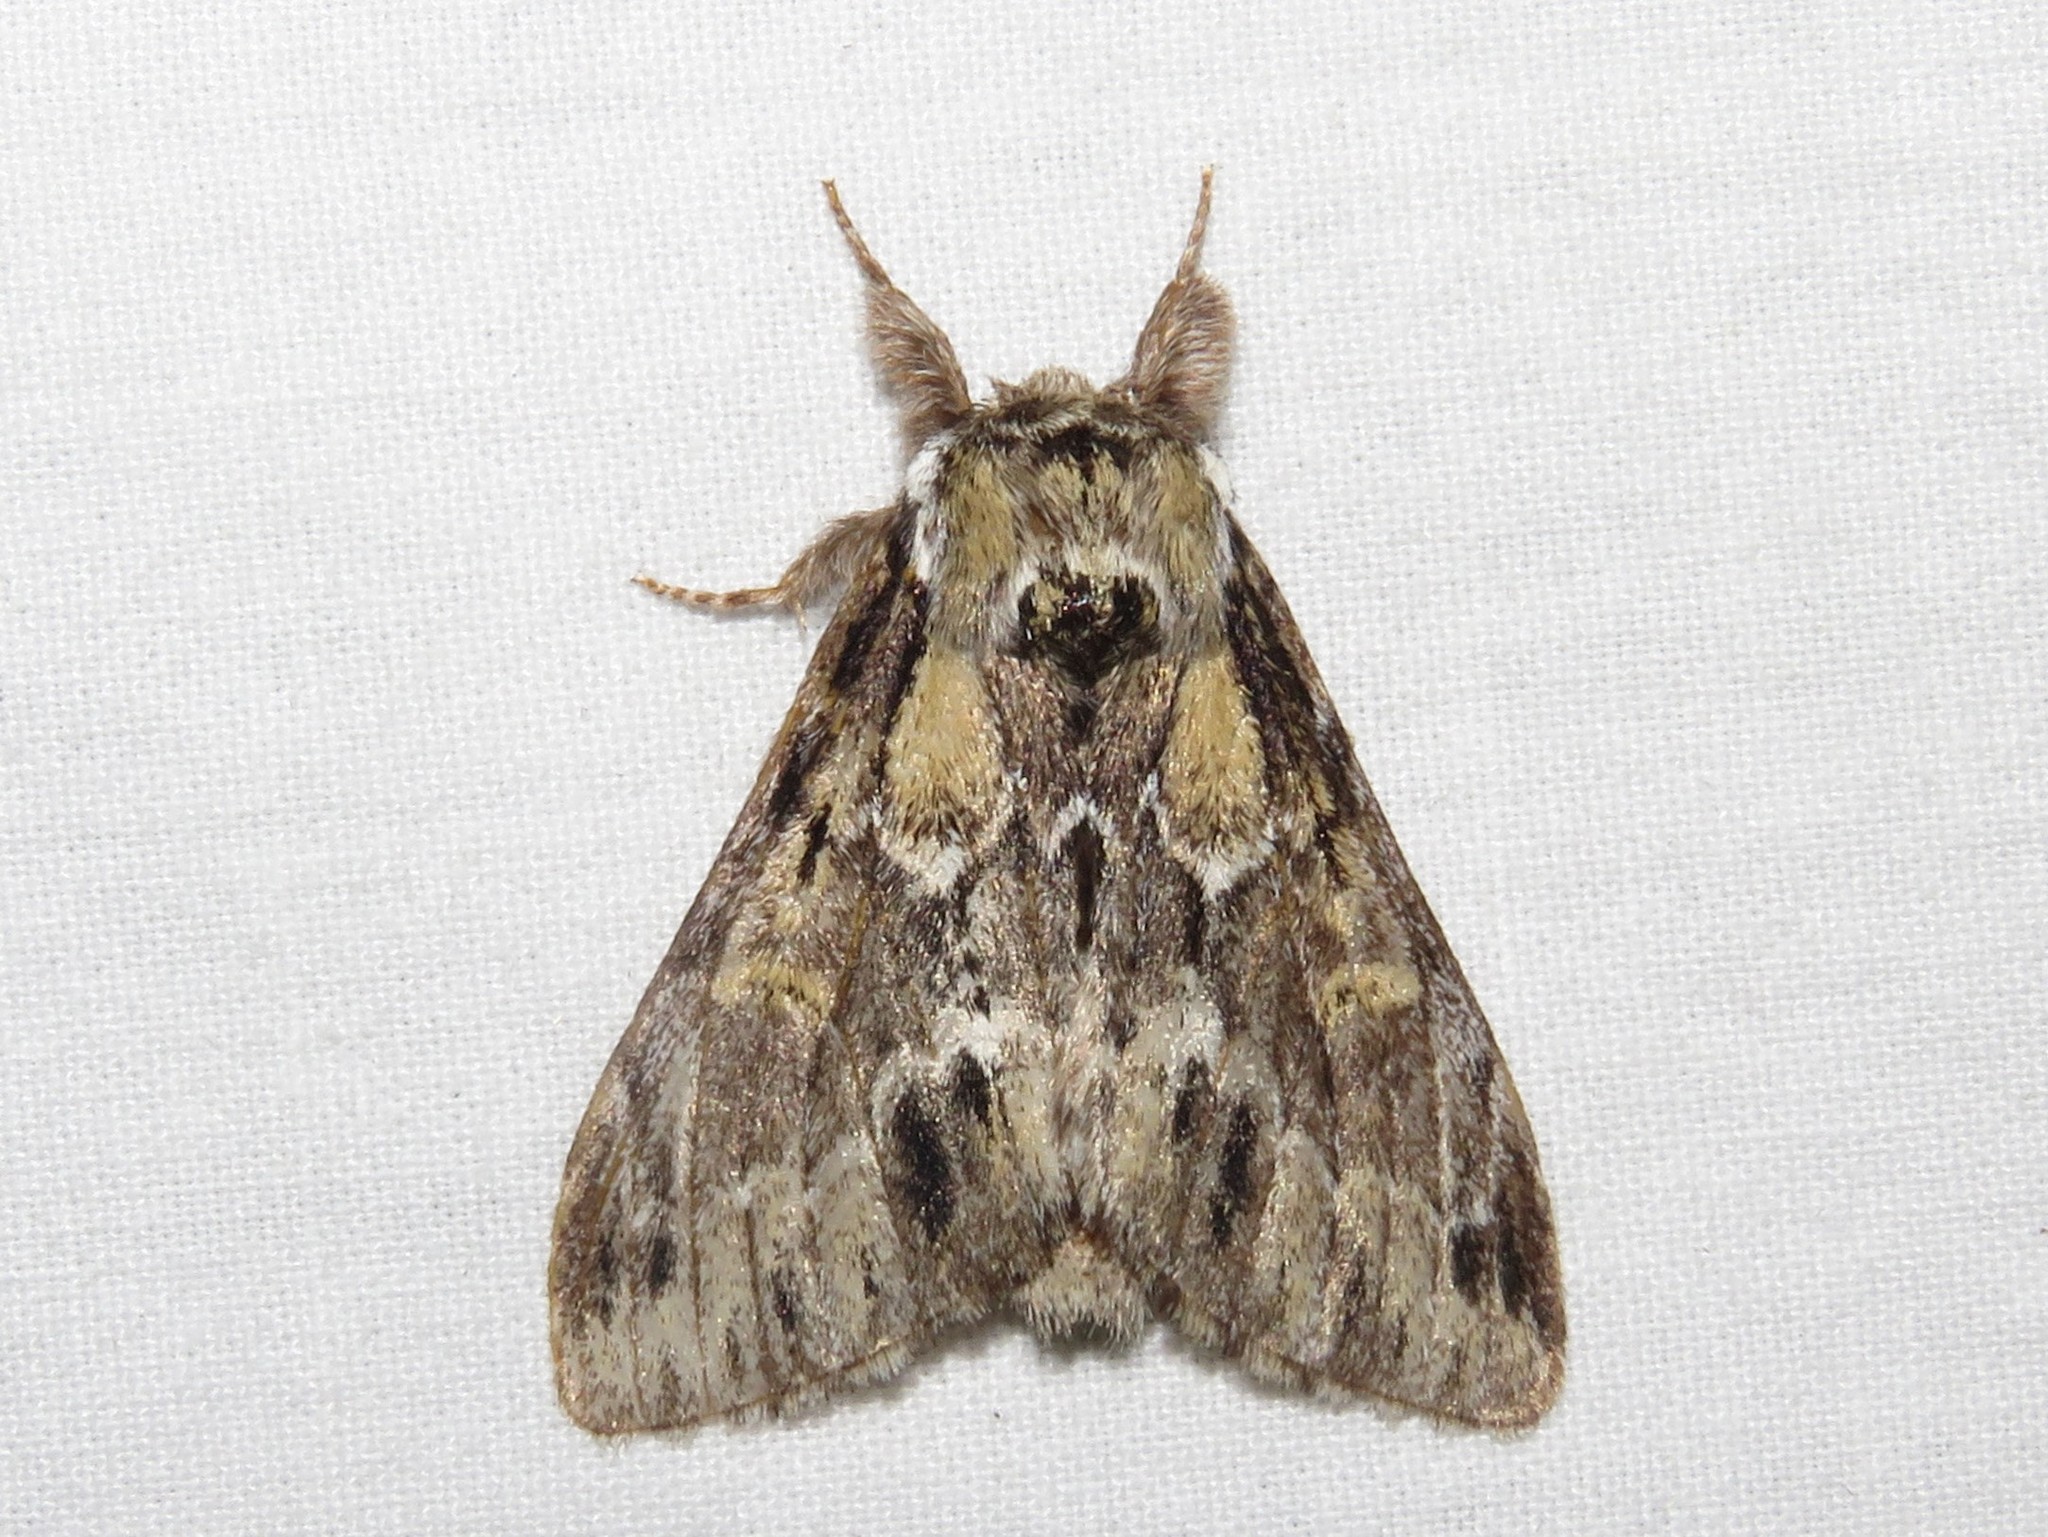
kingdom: Animalia
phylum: Arthropoda
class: Insecta
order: Lepidoptera
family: Notodontidae
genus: Paraeschra
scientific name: Paraeschra georgica
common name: Georgian prominent
